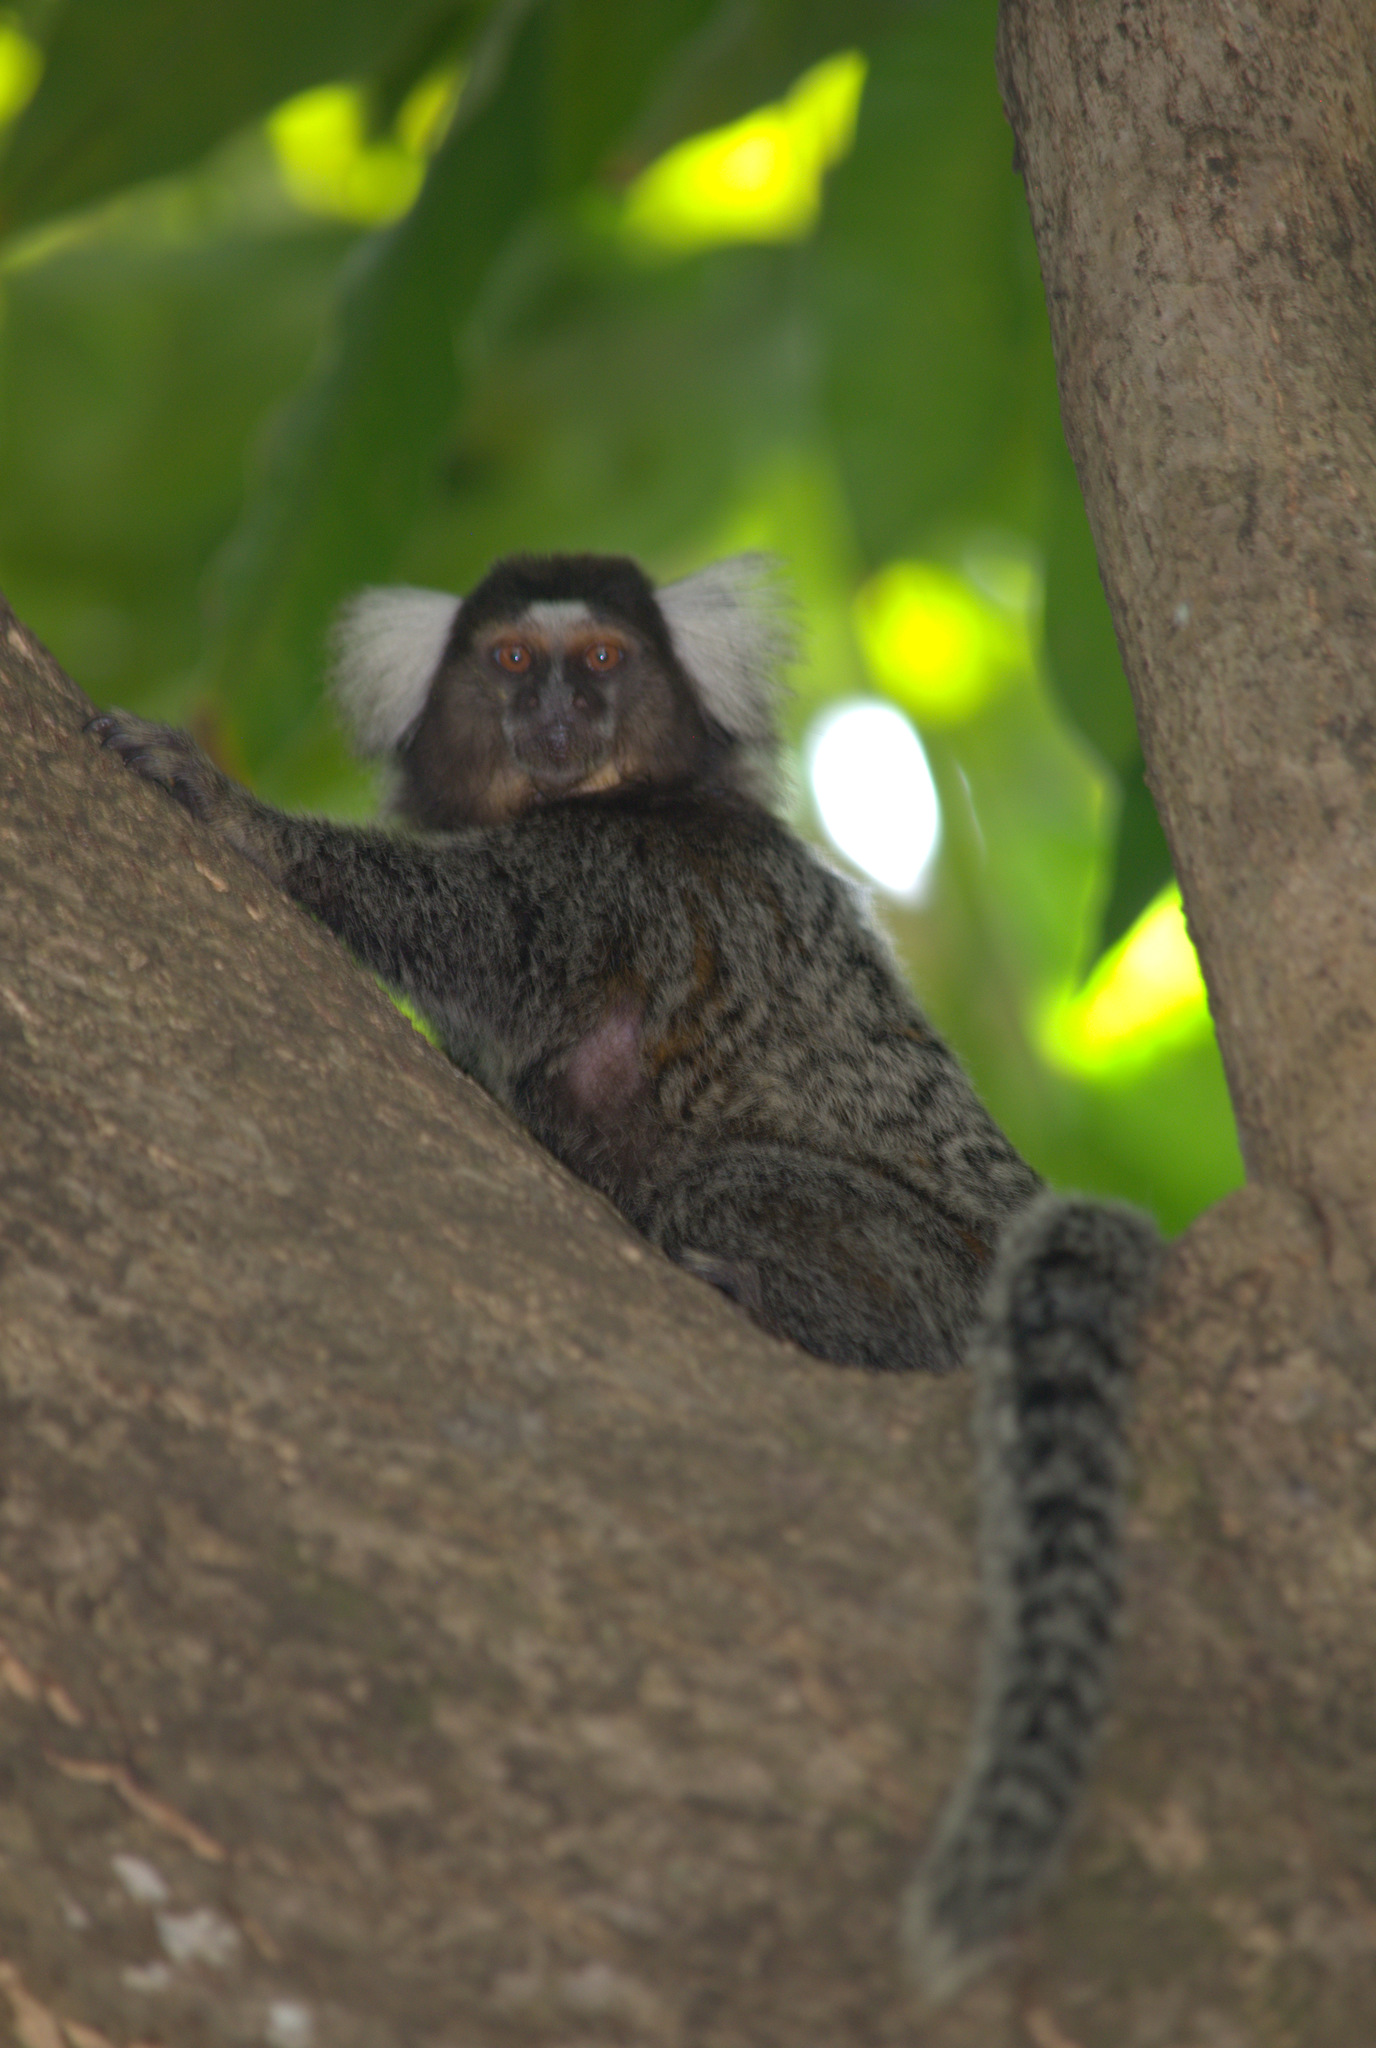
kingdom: Animalia
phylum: Chordata
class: Mammalia
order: Primates
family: Callitrichidae
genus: Callithrix
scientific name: Callithrix jacchus
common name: Common marmoset
